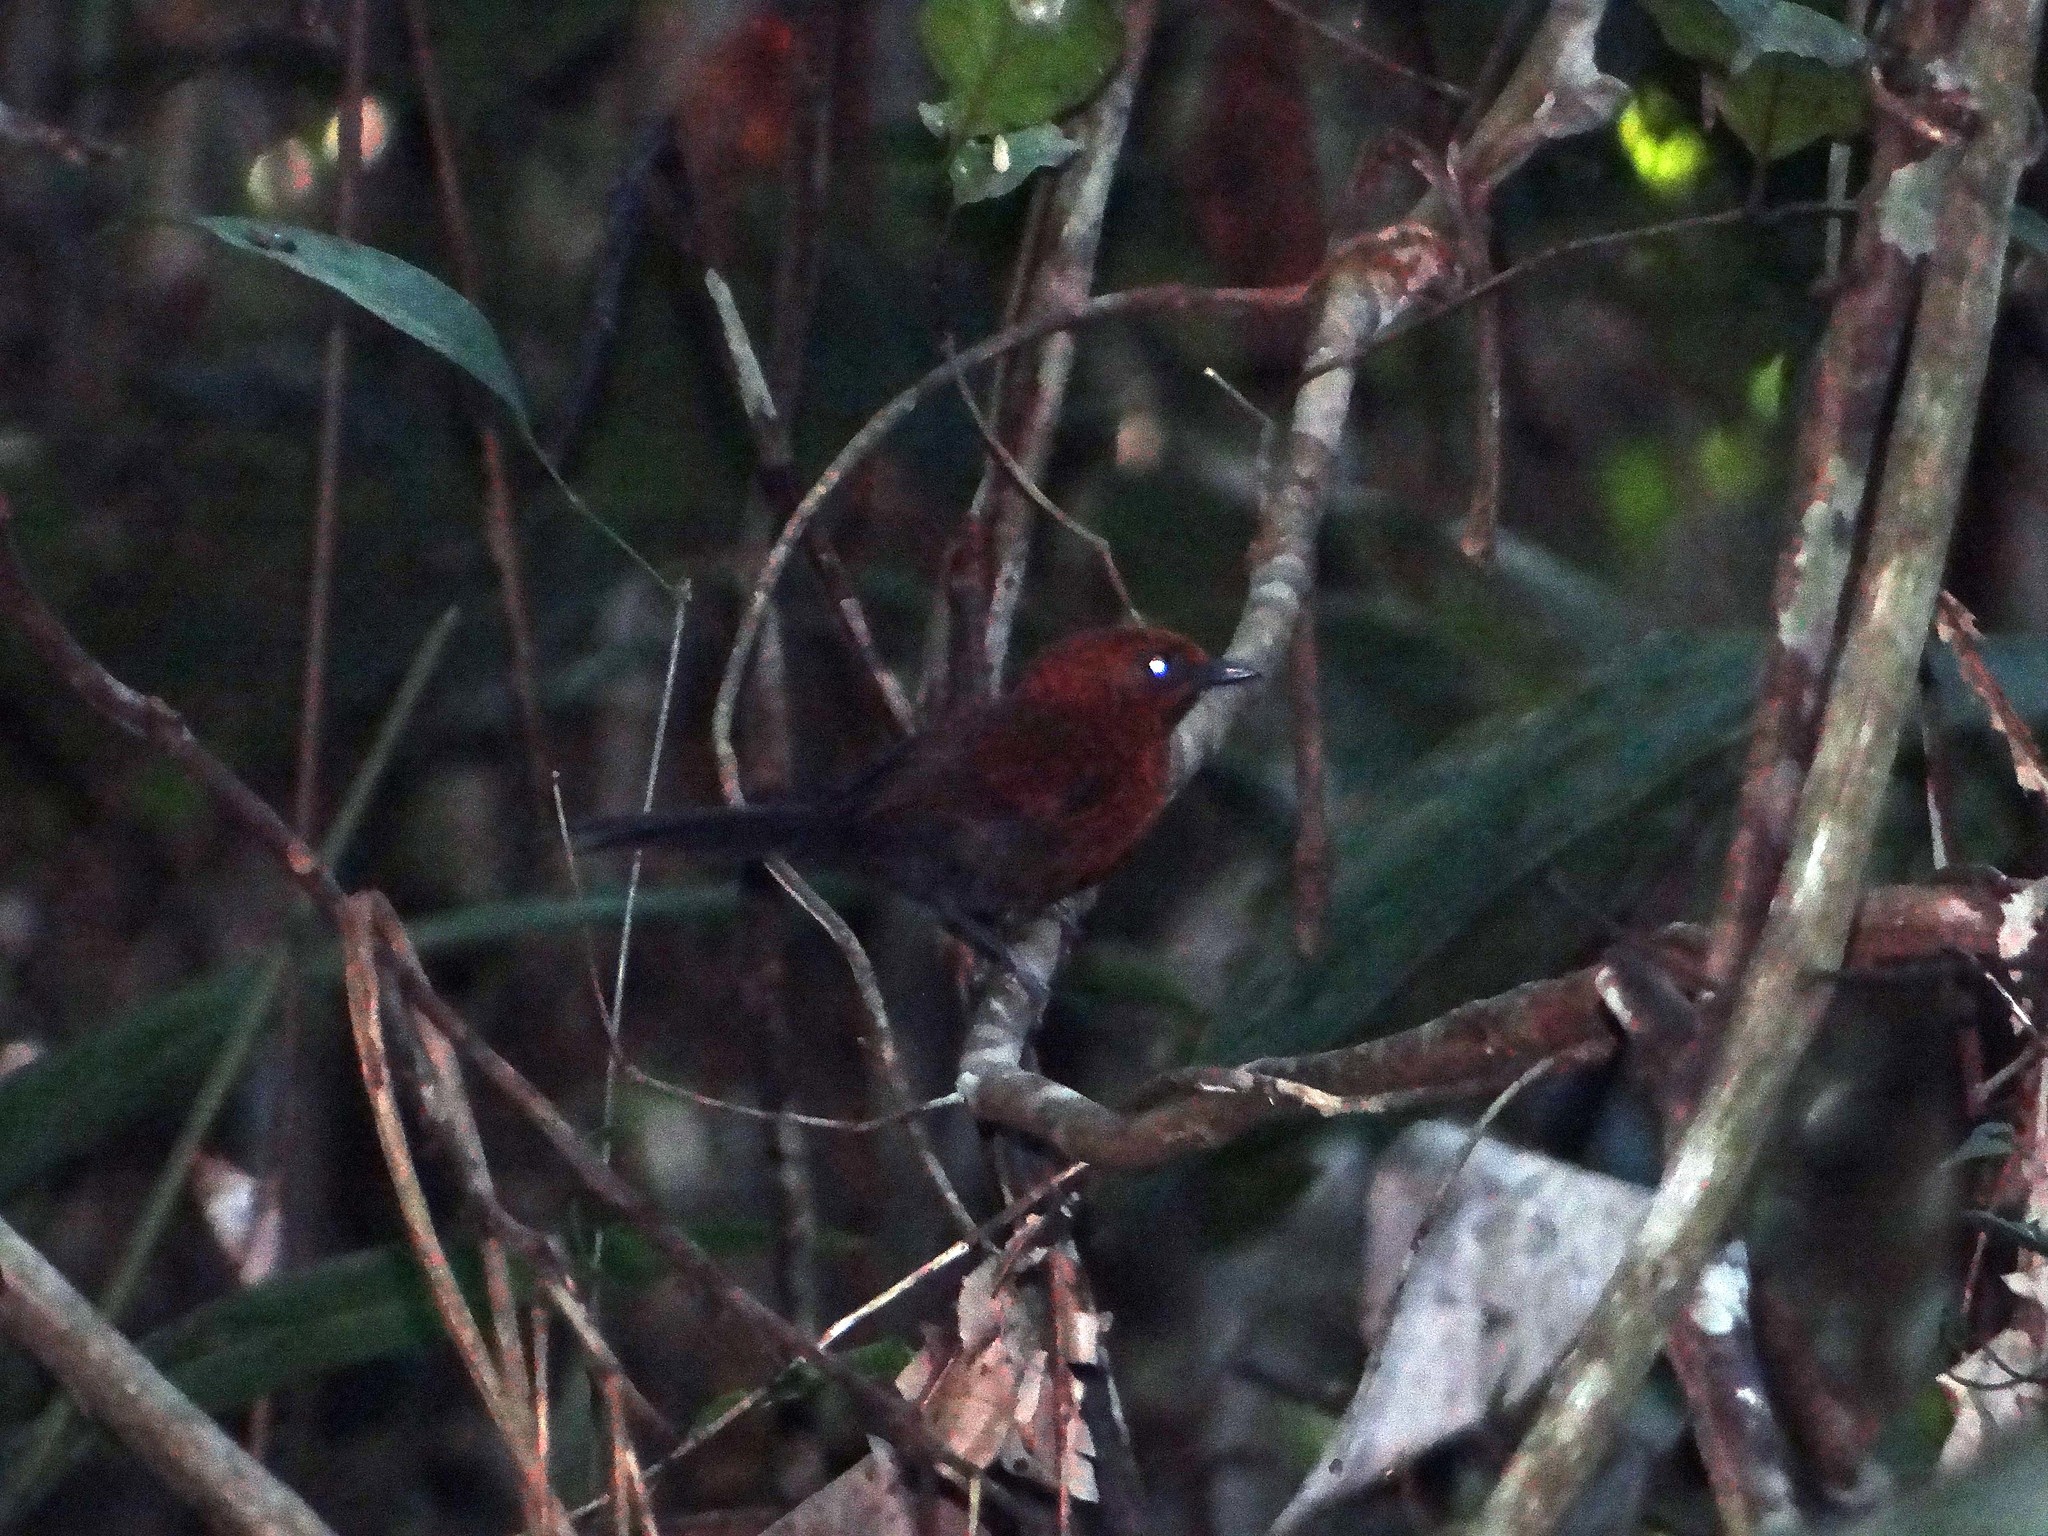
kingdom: Animalia
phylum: Chordata
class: Aves
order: Passeriformes
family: Furnariidae
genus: Synallaxis
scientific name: Synallaxis rutilans
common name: Ruddy spinetail
